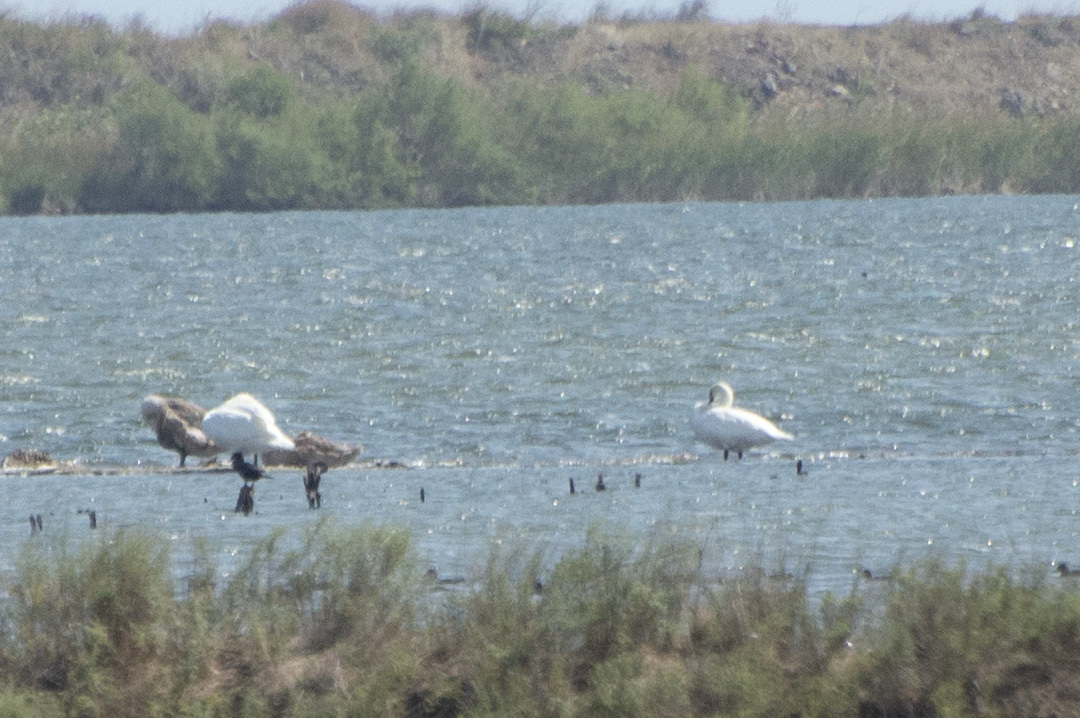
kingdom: Animalia
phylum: Chordata
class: Aves
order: Anseriformes
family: Anatidae
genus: Cygnus
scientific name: Cygnus olor
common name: Mute swan
